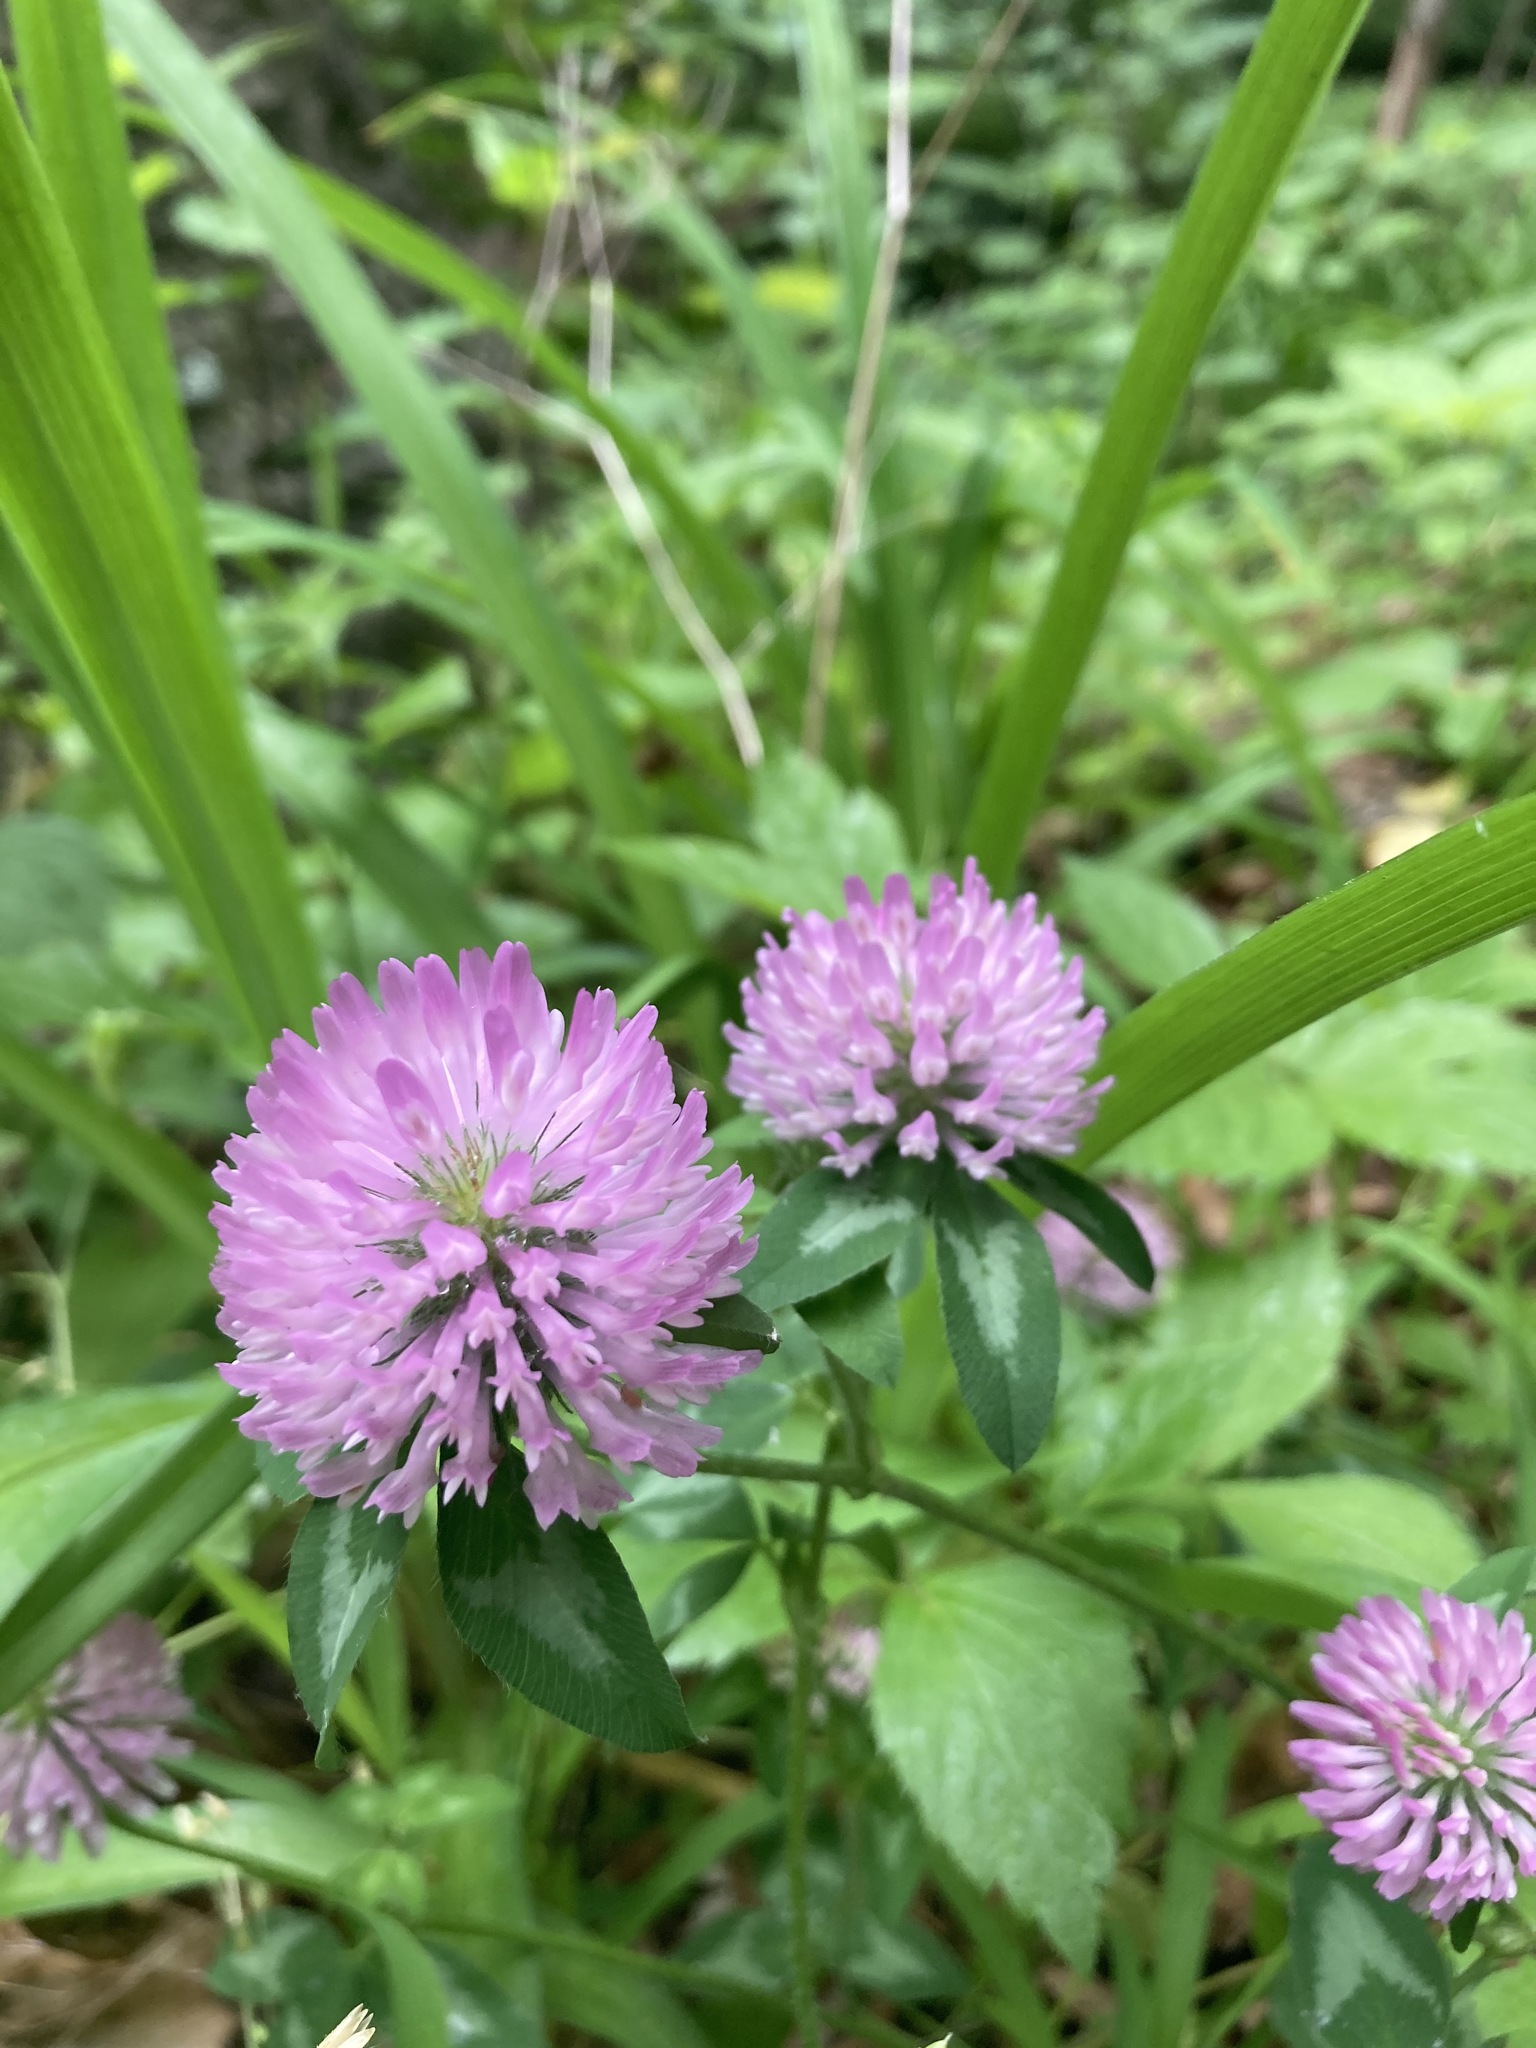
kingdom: Plantae
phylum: Tracheophyta
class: Magnoliopsida
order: Fabales
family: Fabaceae
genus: Trifolium
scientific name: Trifolium pratense
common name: Red clover
